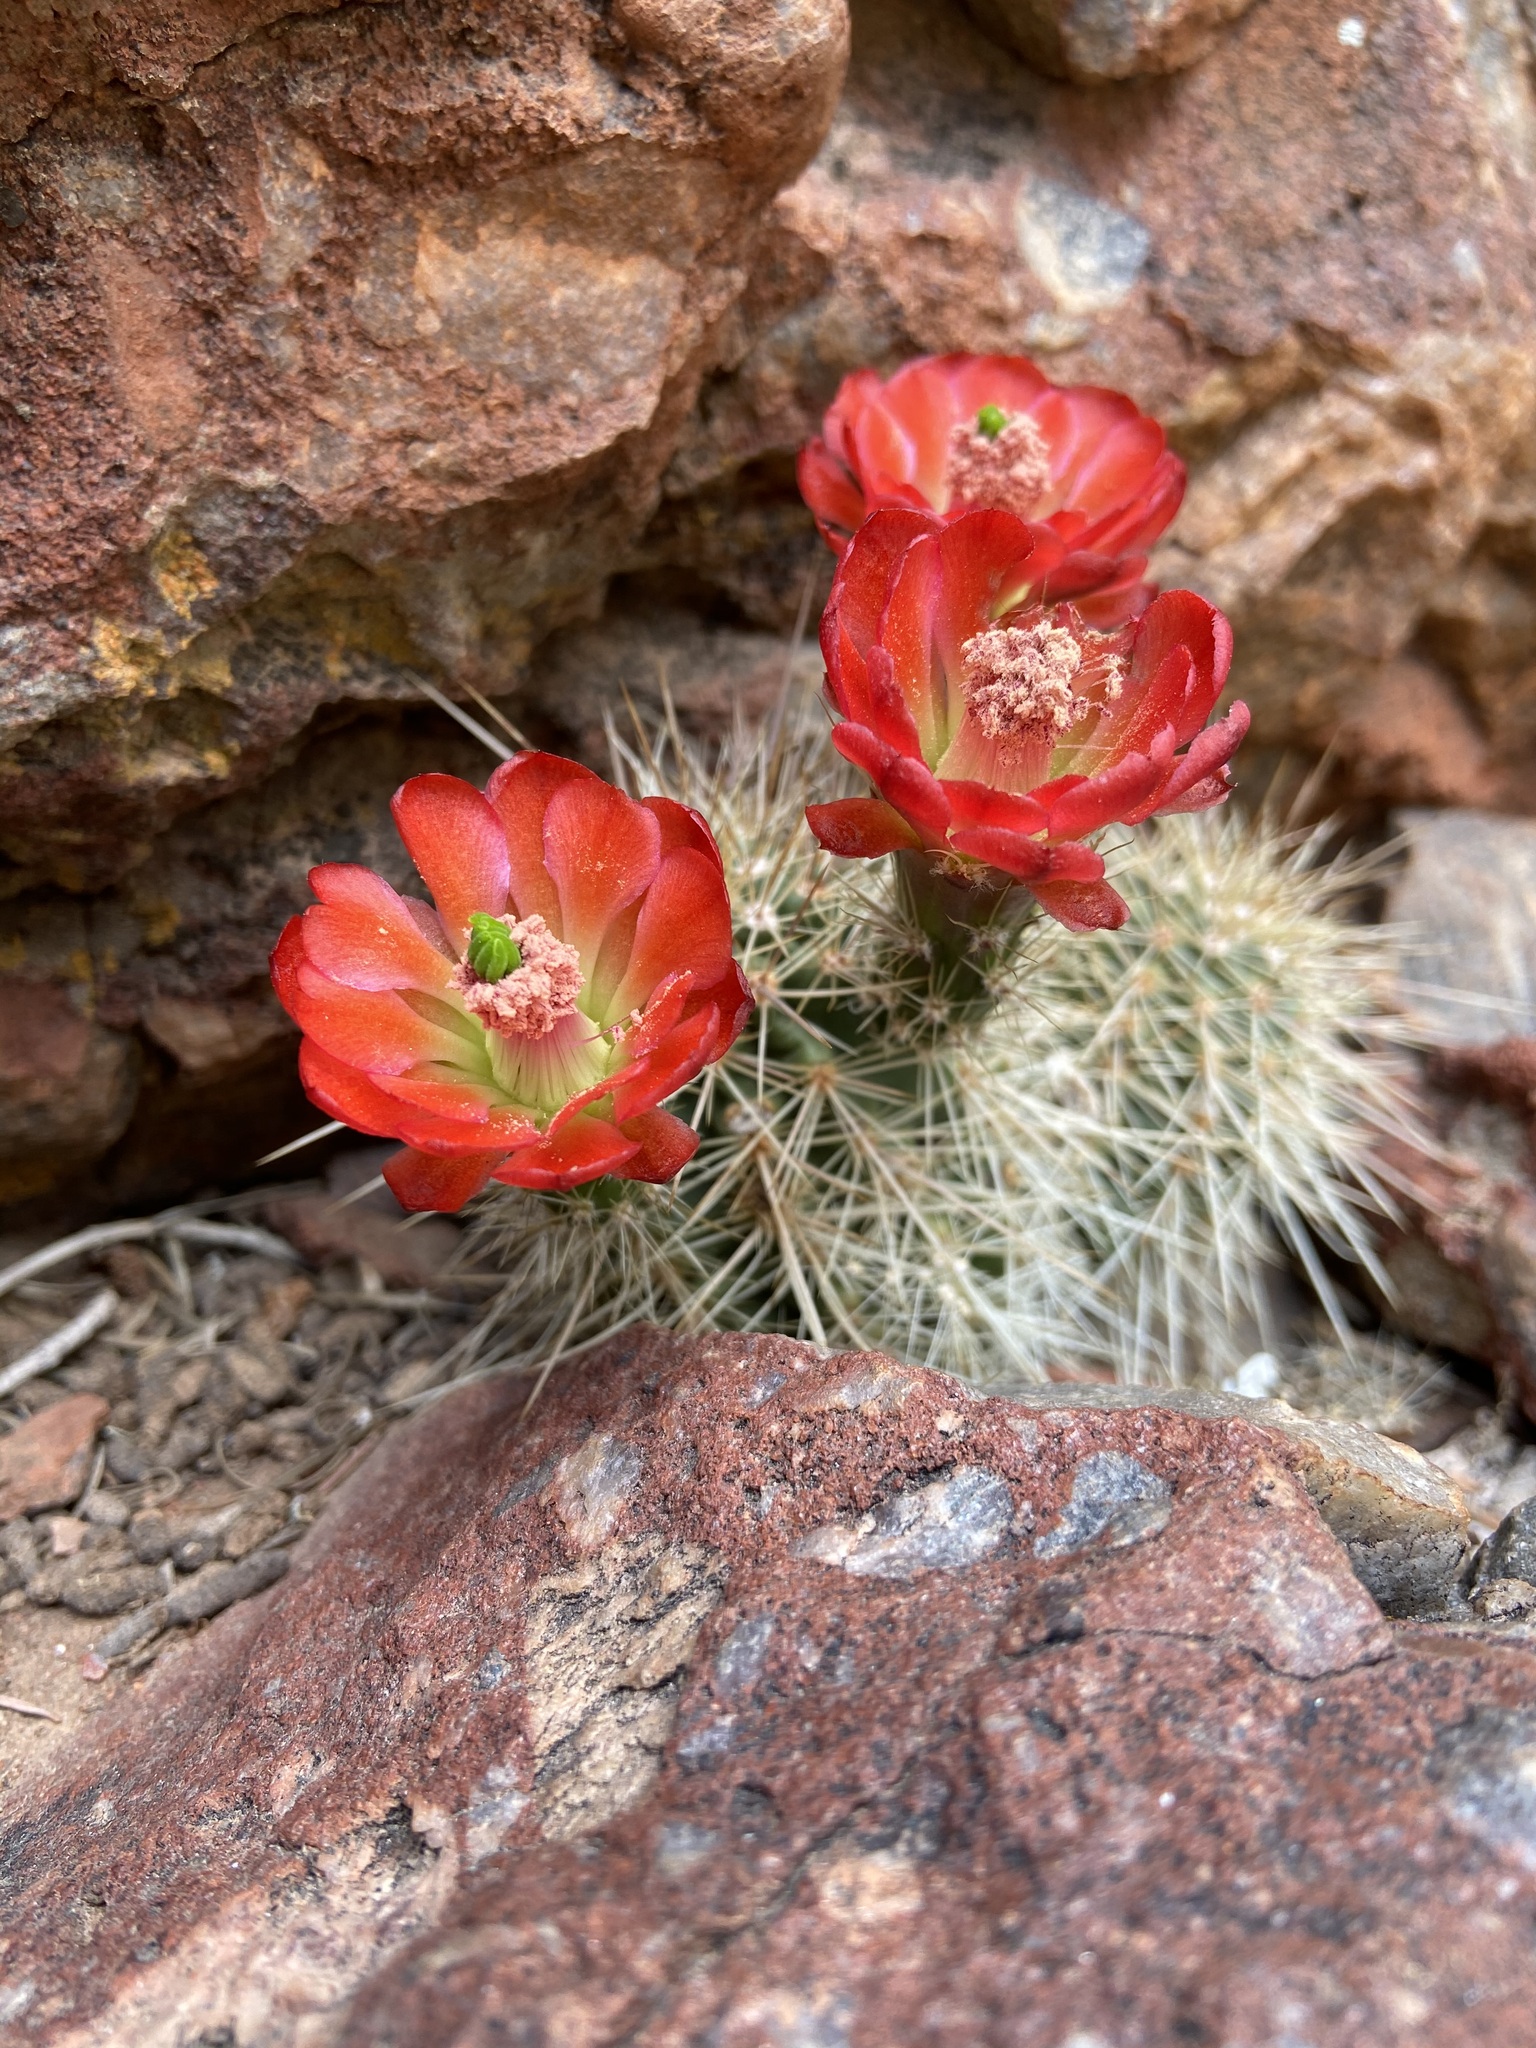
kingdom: Plantae
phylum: Tracheophyta
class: Magnoliopsida
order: Caryophyllales
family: Cactaceae
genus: Echinocereus
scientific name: Echinocereus coccineus
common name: Scarlet hedgehog cactus
